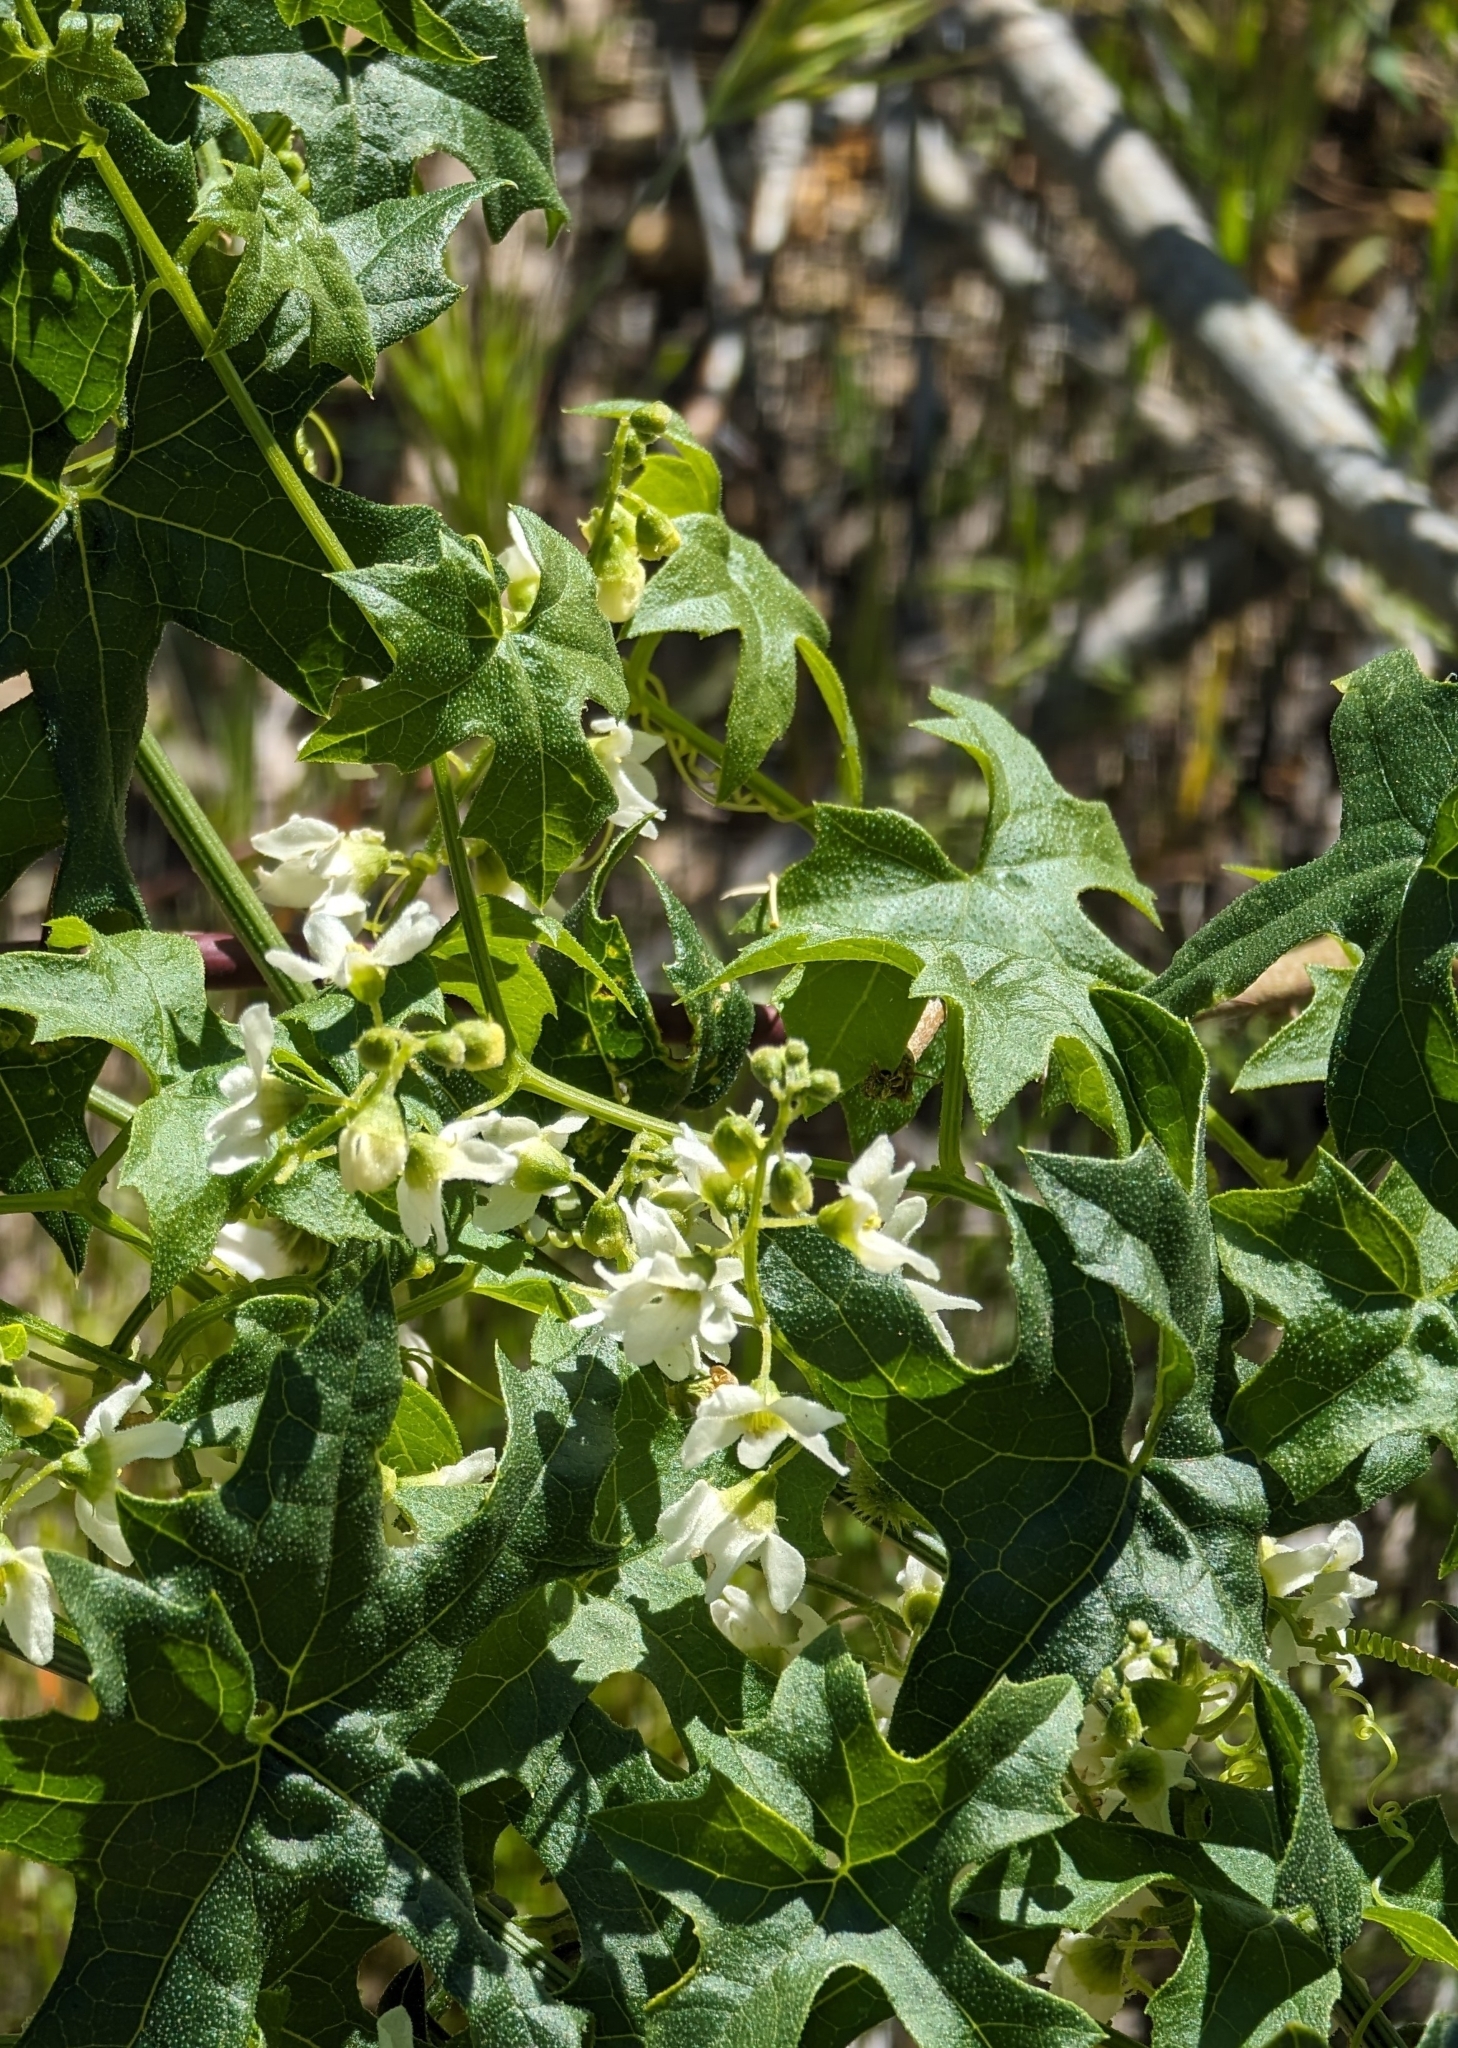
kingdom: Plantae
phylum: Tracheophyta
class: Magnoliopsida
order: Cucurbitales
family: Cucurbitaceae
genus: Marah
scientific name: Marah macrocarpa
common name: Cucamonga manroot
